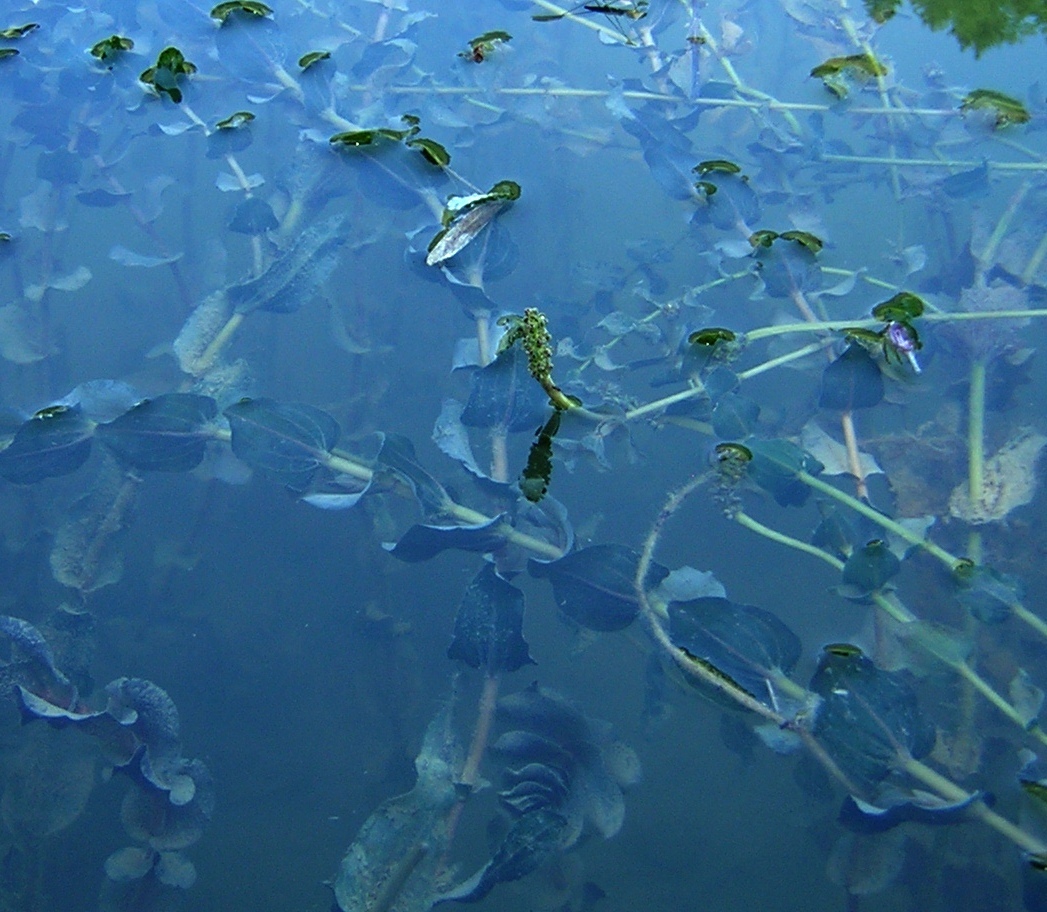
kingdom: Plantae
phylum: Tracheophyta
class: Liliopsida
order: Alismatales
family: Potamogetonaceae
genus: Potamogeton
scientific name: Potamogeton perfoliatus
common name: Perfoliate pondweed
